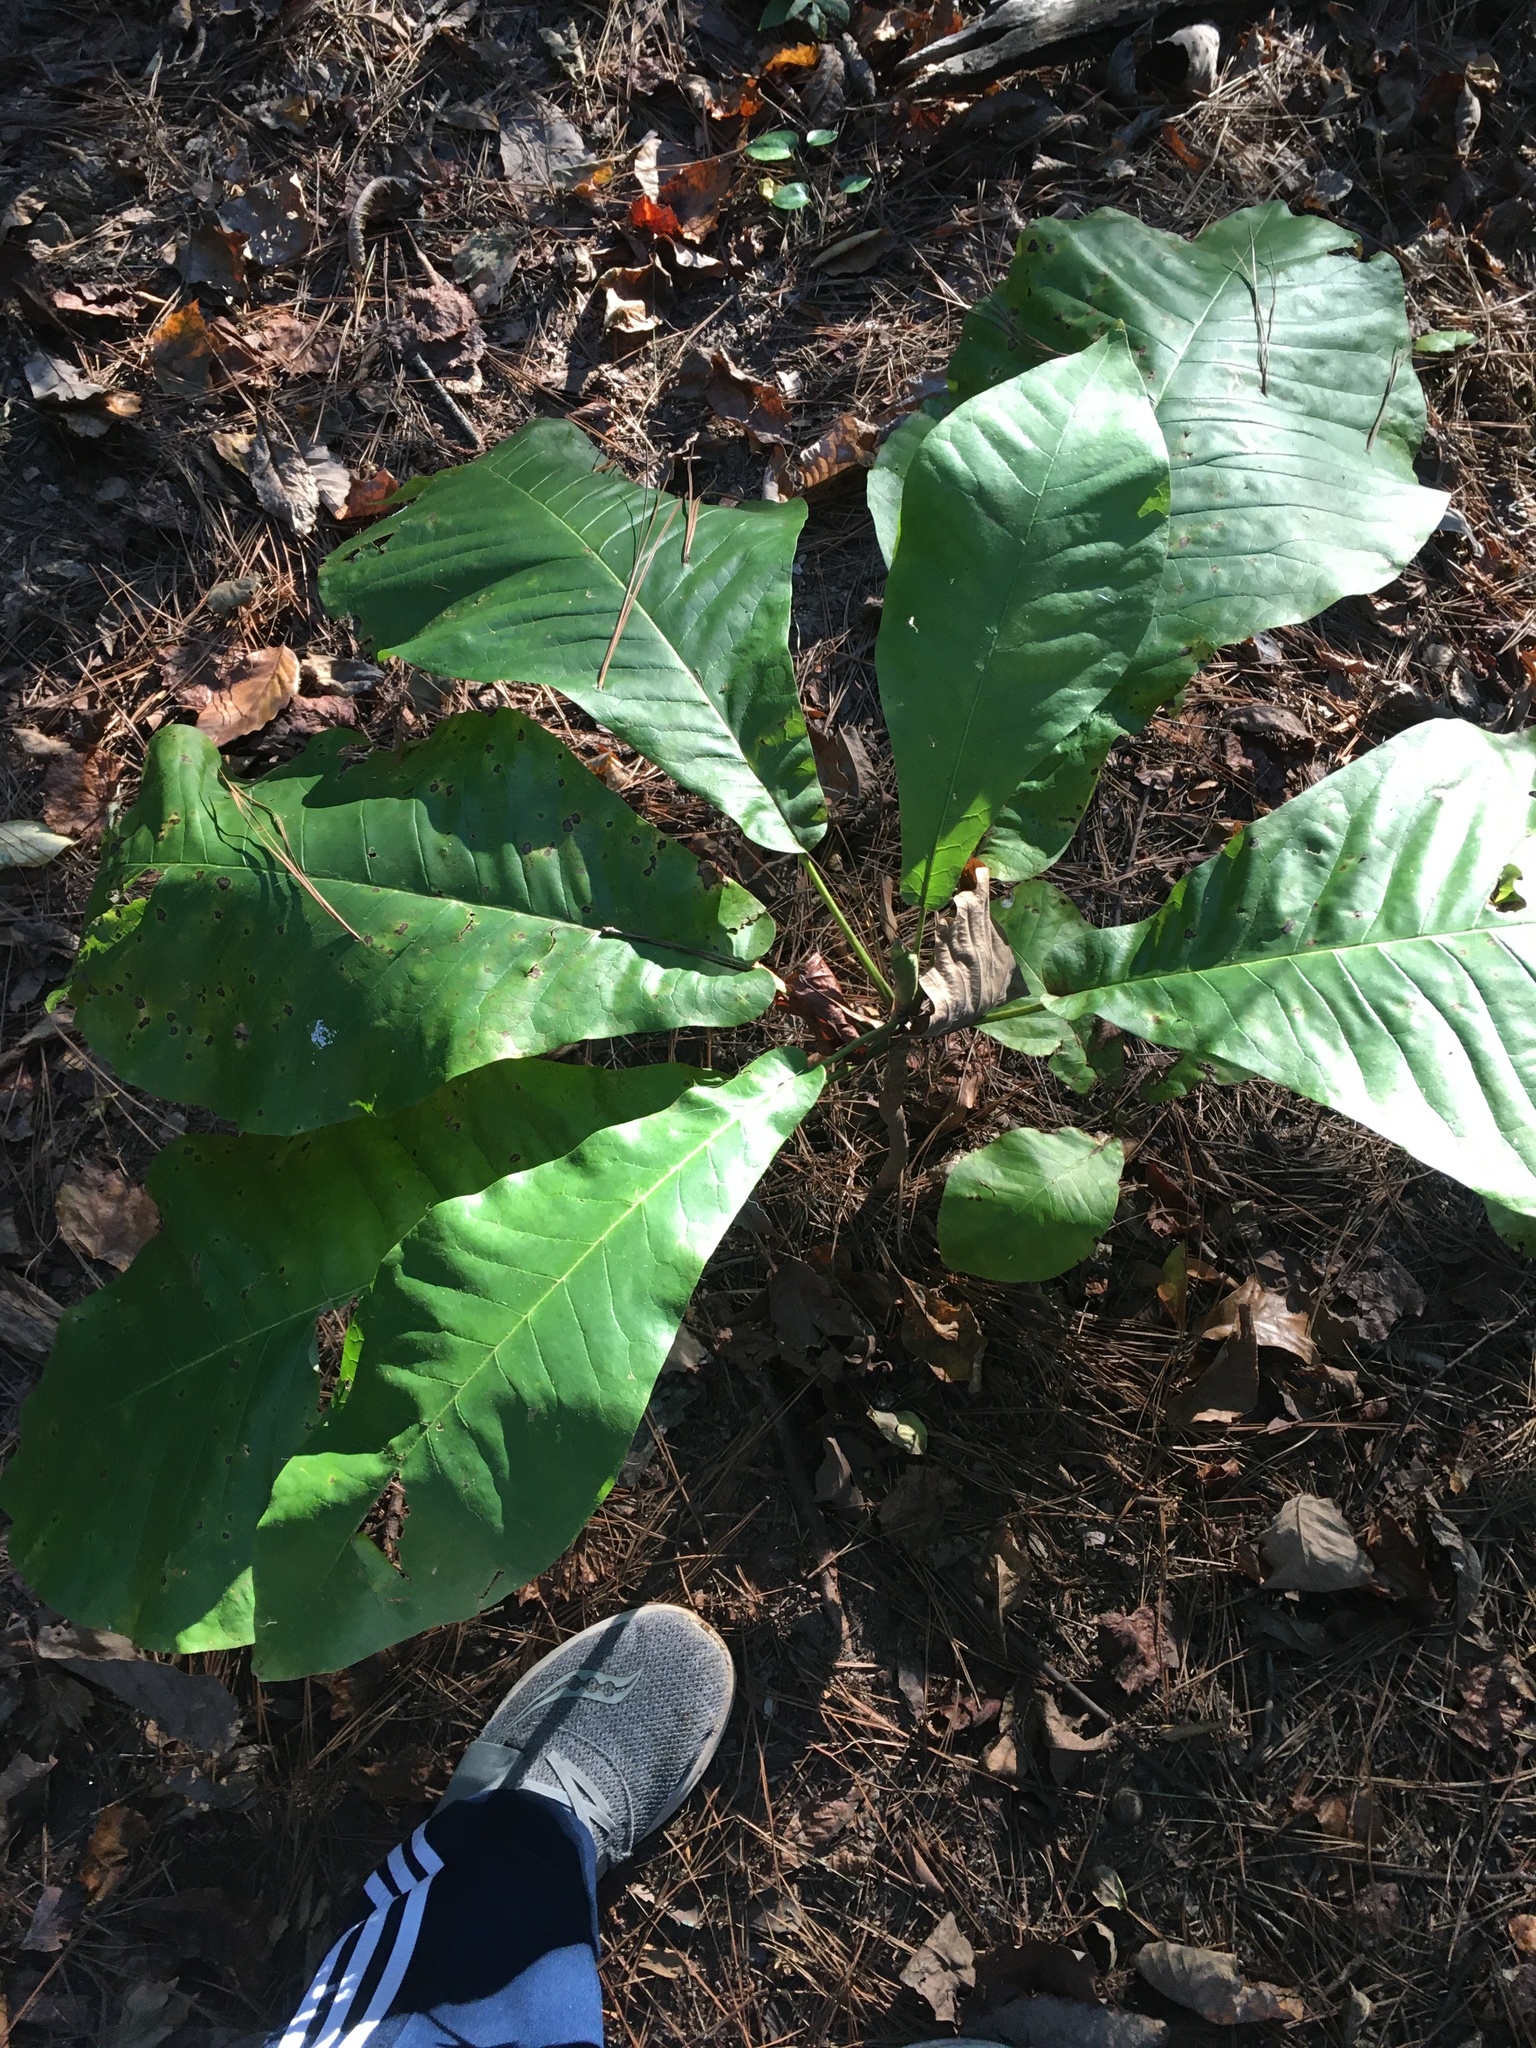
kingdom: Plantae
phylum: Tracheophyta
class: Magnoliopsida
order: Magnoliales
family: Magnoliaceae
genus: Magnolia
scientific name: Magnolia macrophylla
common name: Big-leaf magnolia
